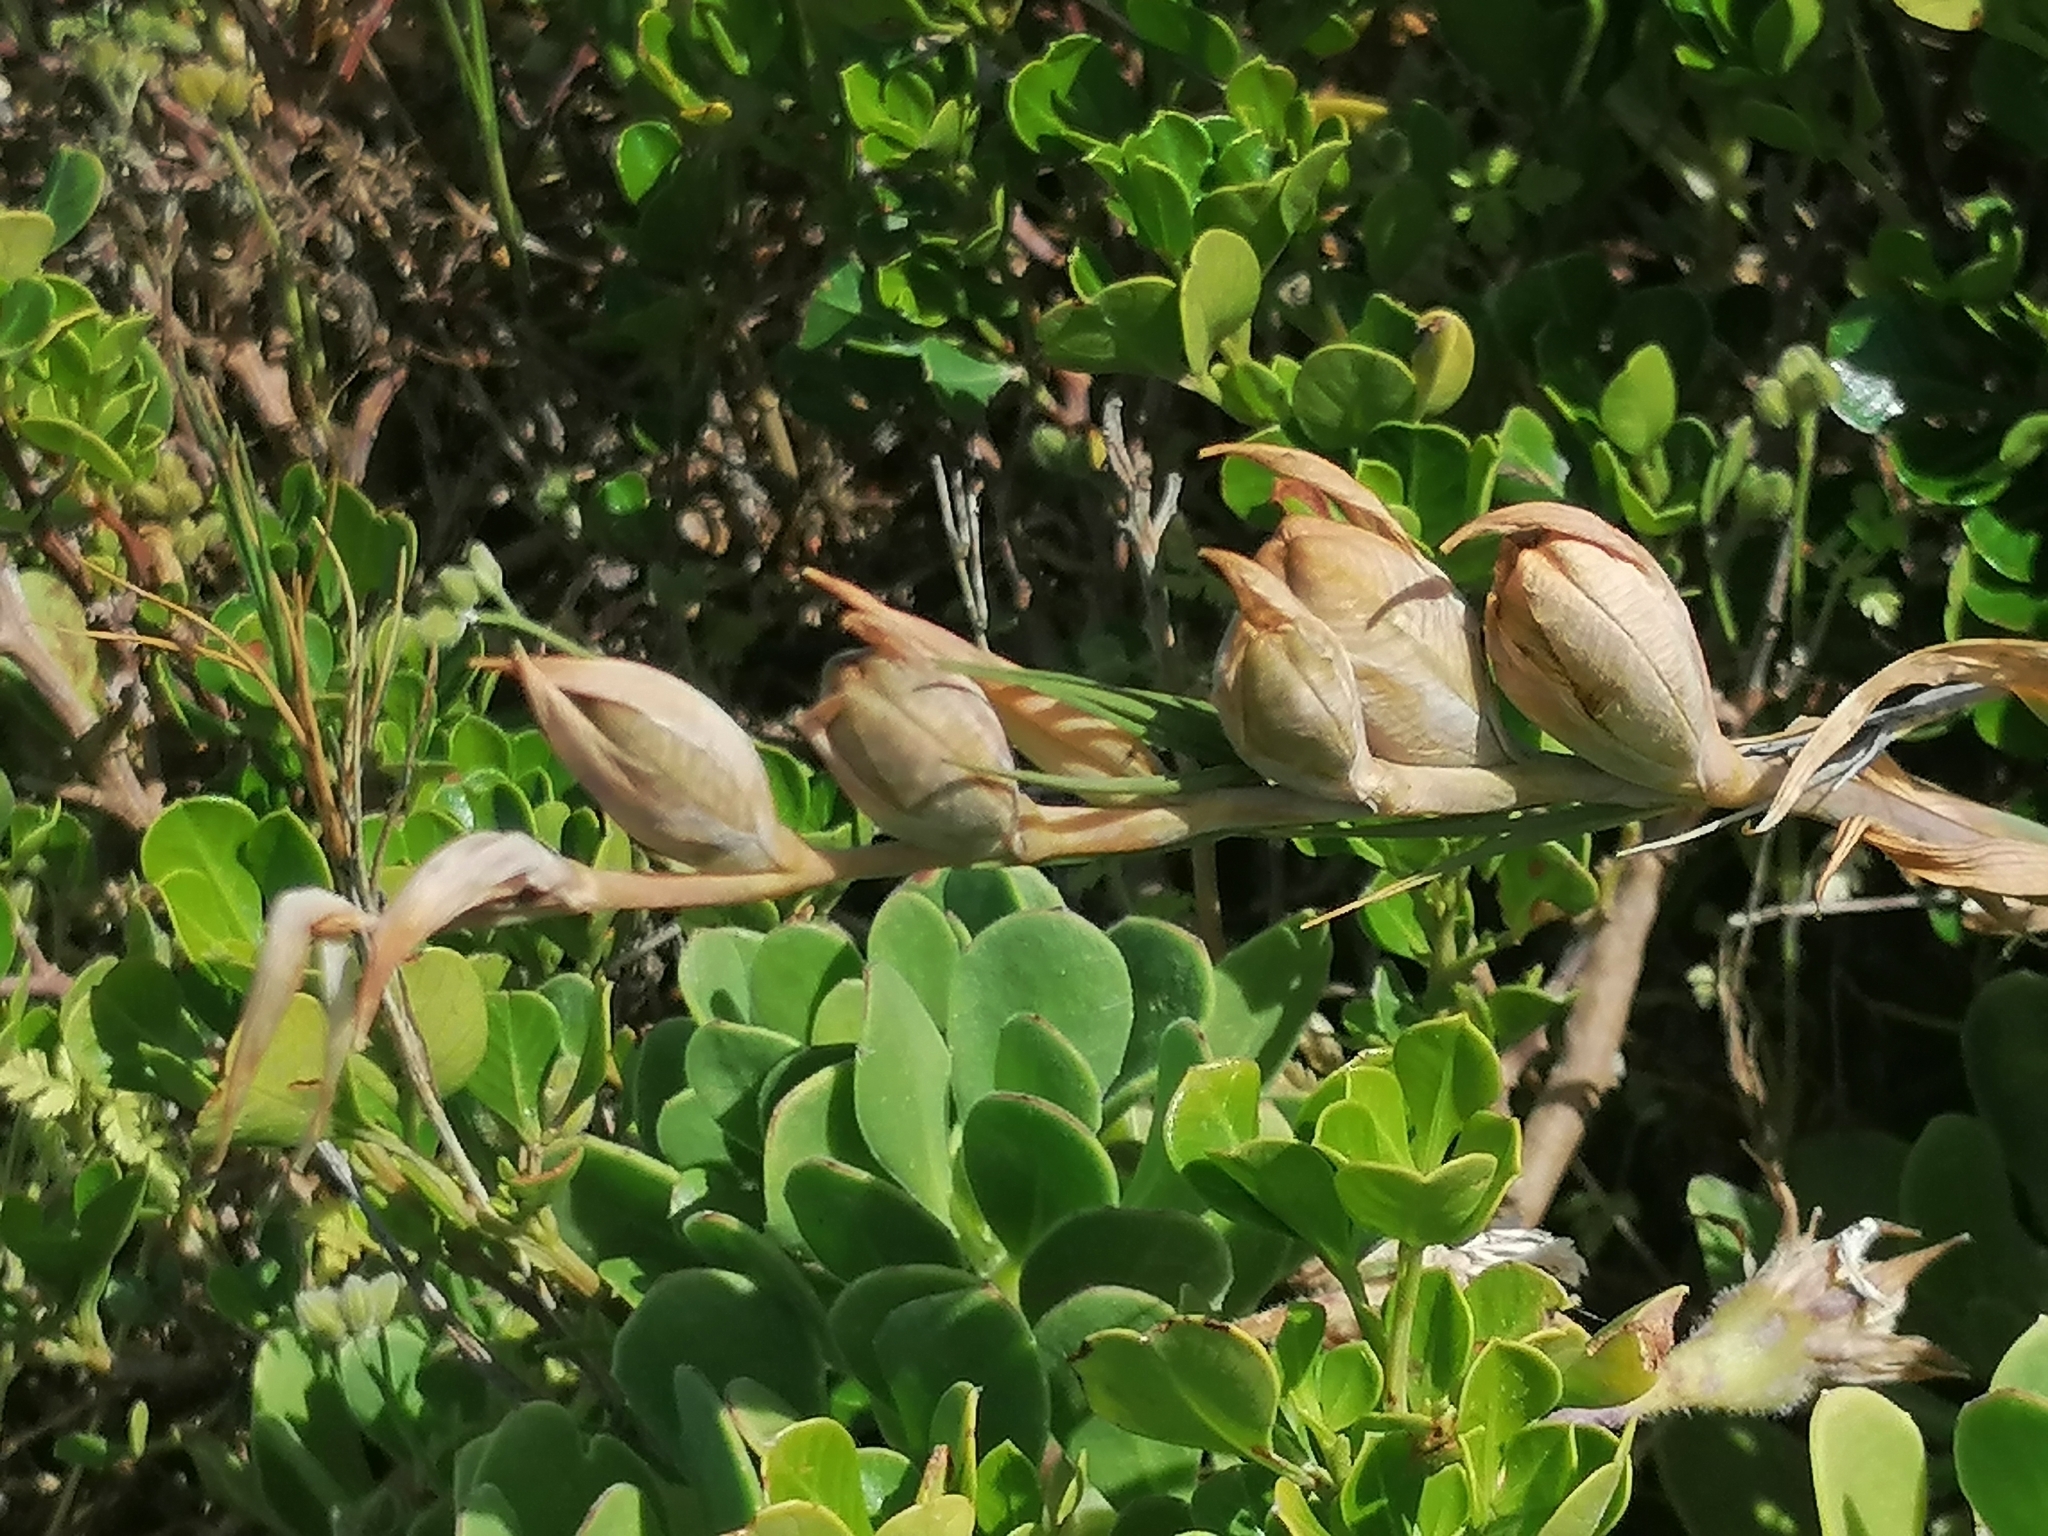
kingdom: Plantae
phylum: Tracheophyta
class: Liliopsida
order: Asparagales
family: Iridaceae
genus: Gladiolus
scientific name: Gladiolus cunonius
